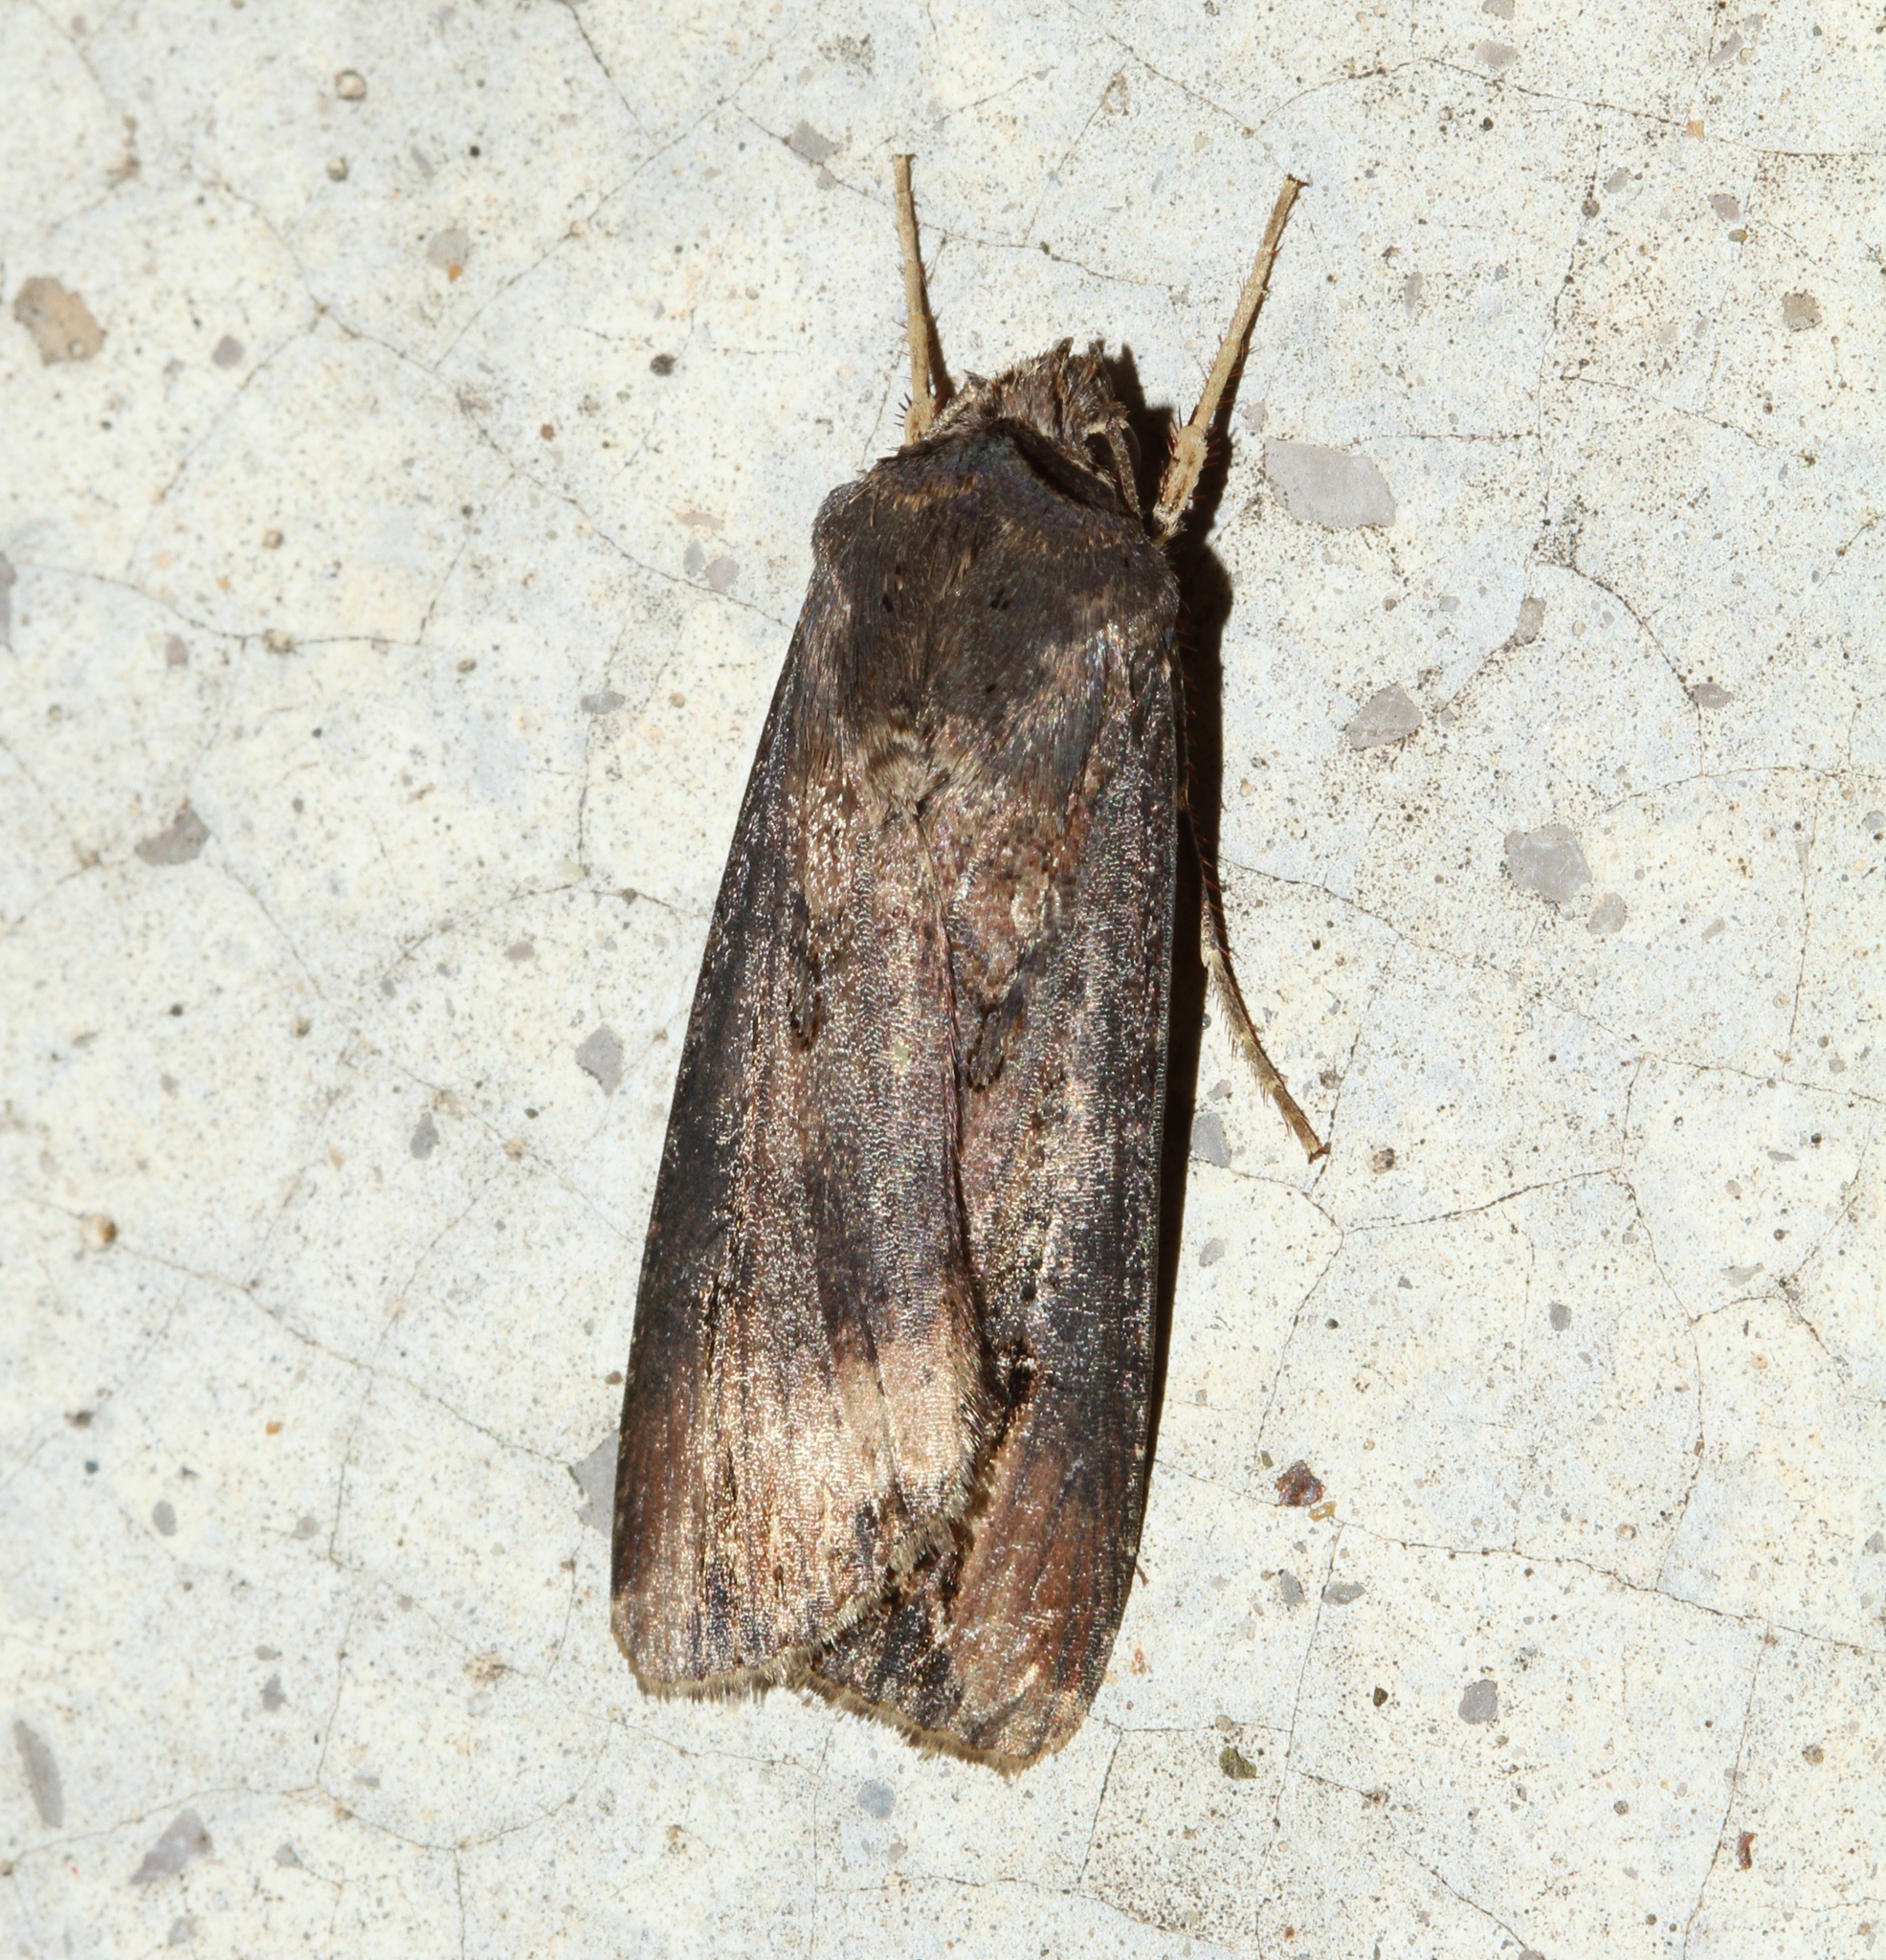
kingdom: Animalia
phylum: Arthropoda
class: Insecta
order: Lepidoptera
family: Noctuidae
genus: Agrotis
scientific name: Agrotis ipsilon
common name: Dark sword-grass
